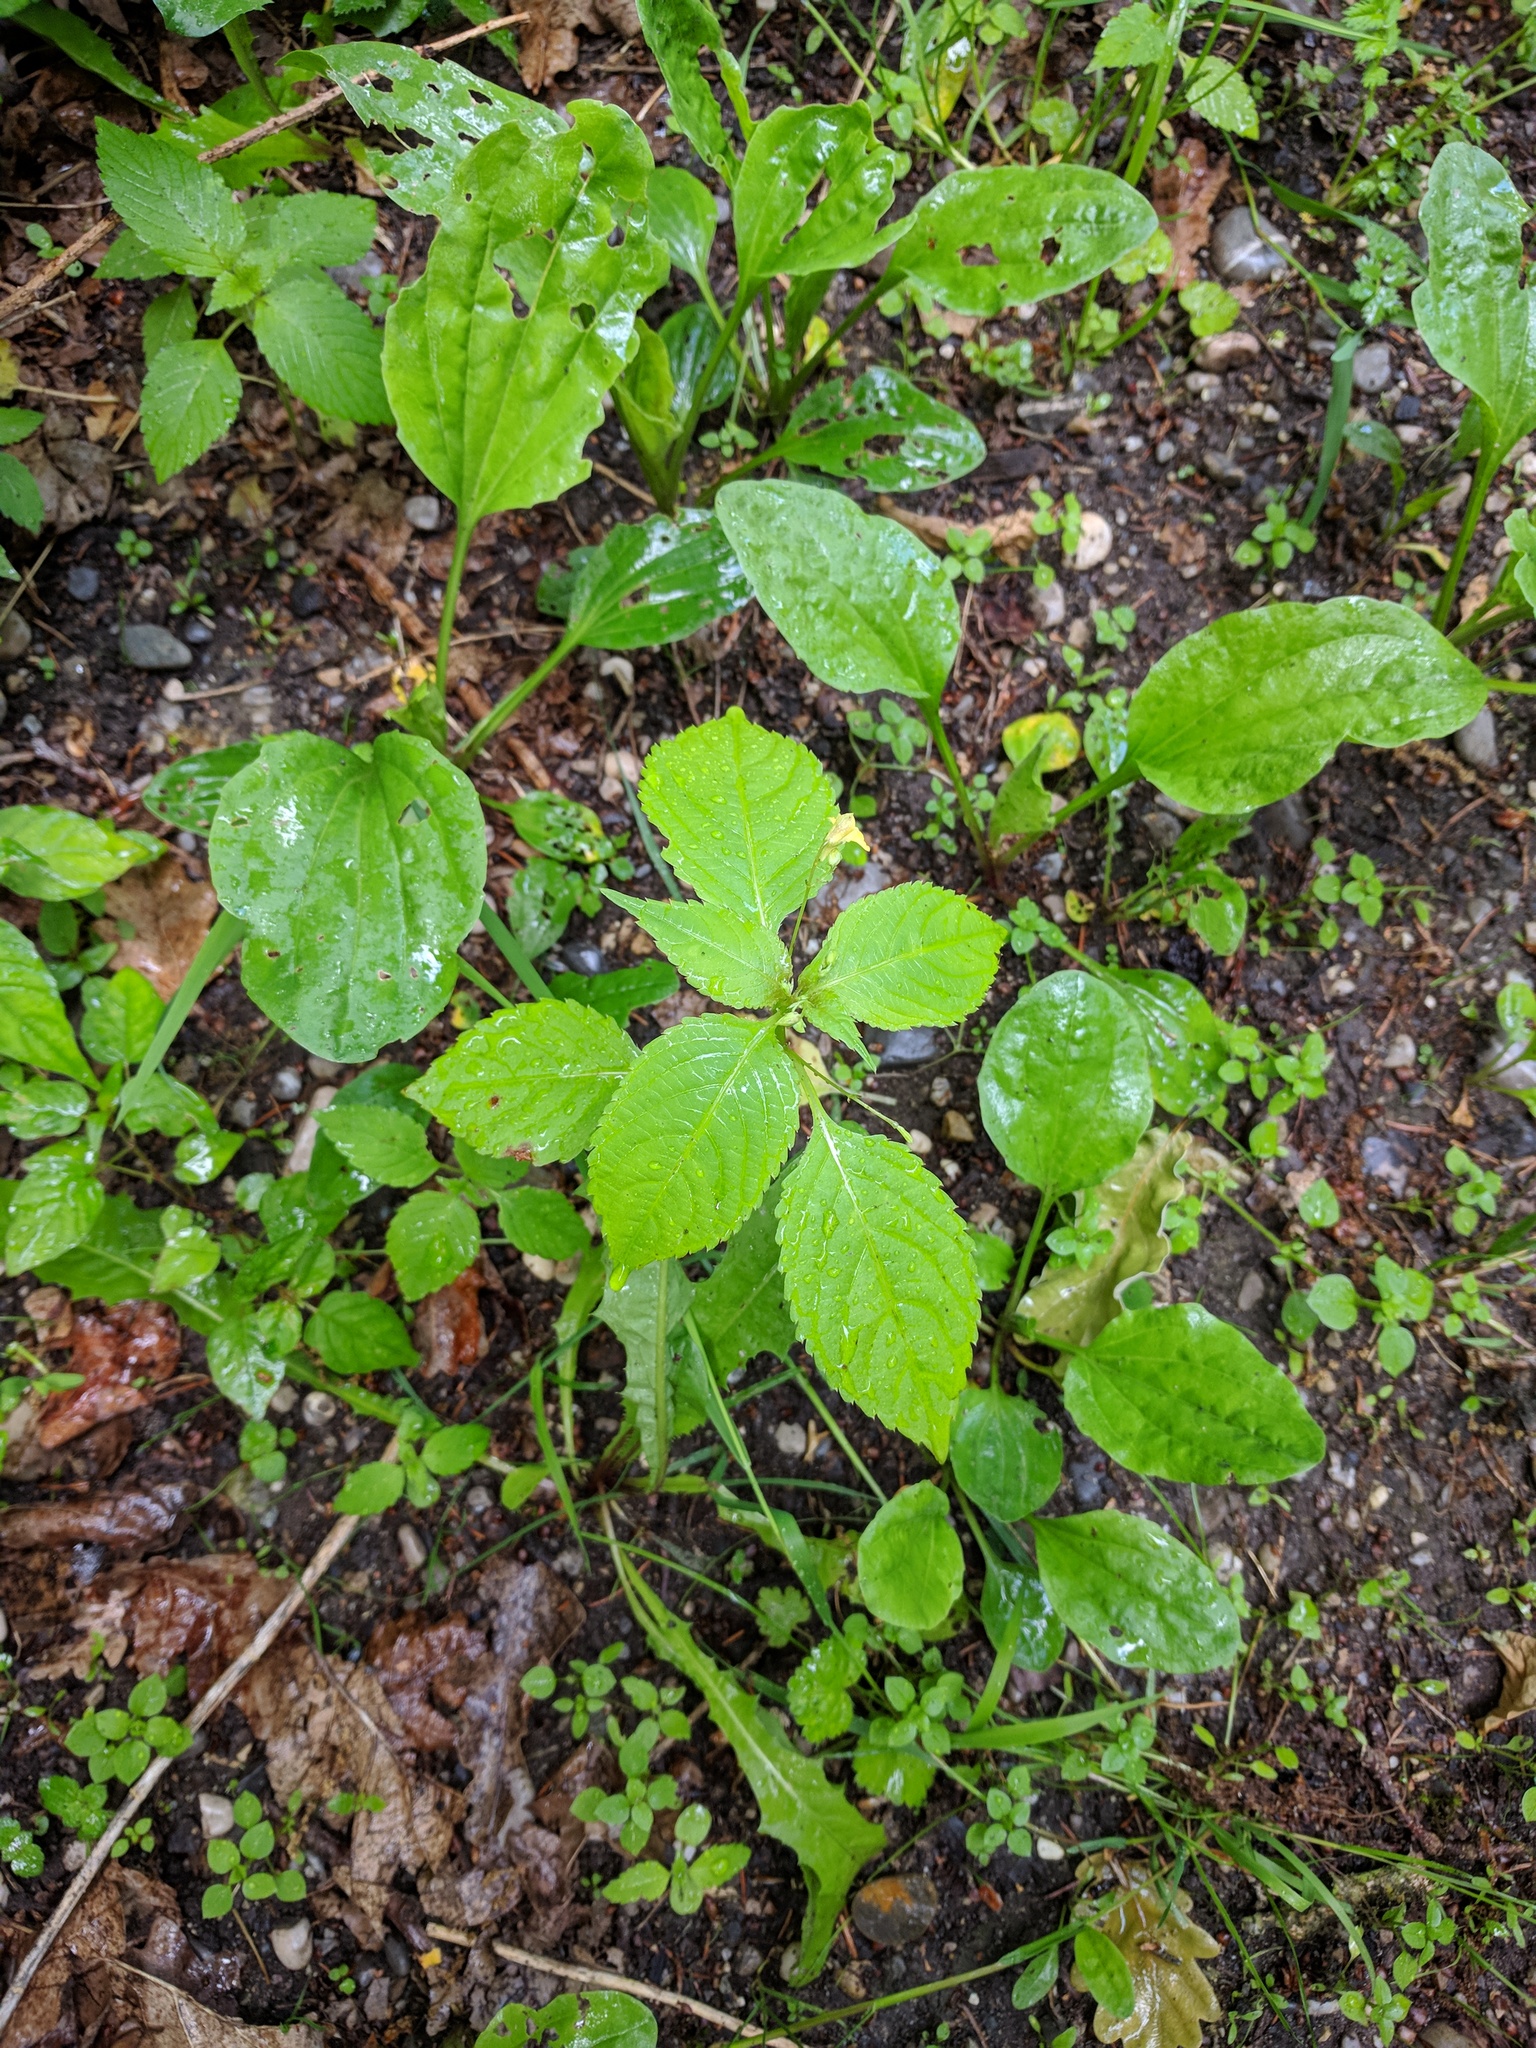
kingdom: Plantae
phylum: Tracheophyta
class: Magnoliopsida
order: Ericales
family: Balsaminaceae
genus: Impatiens
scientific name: Impatiens parviflora
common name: Small balsam
